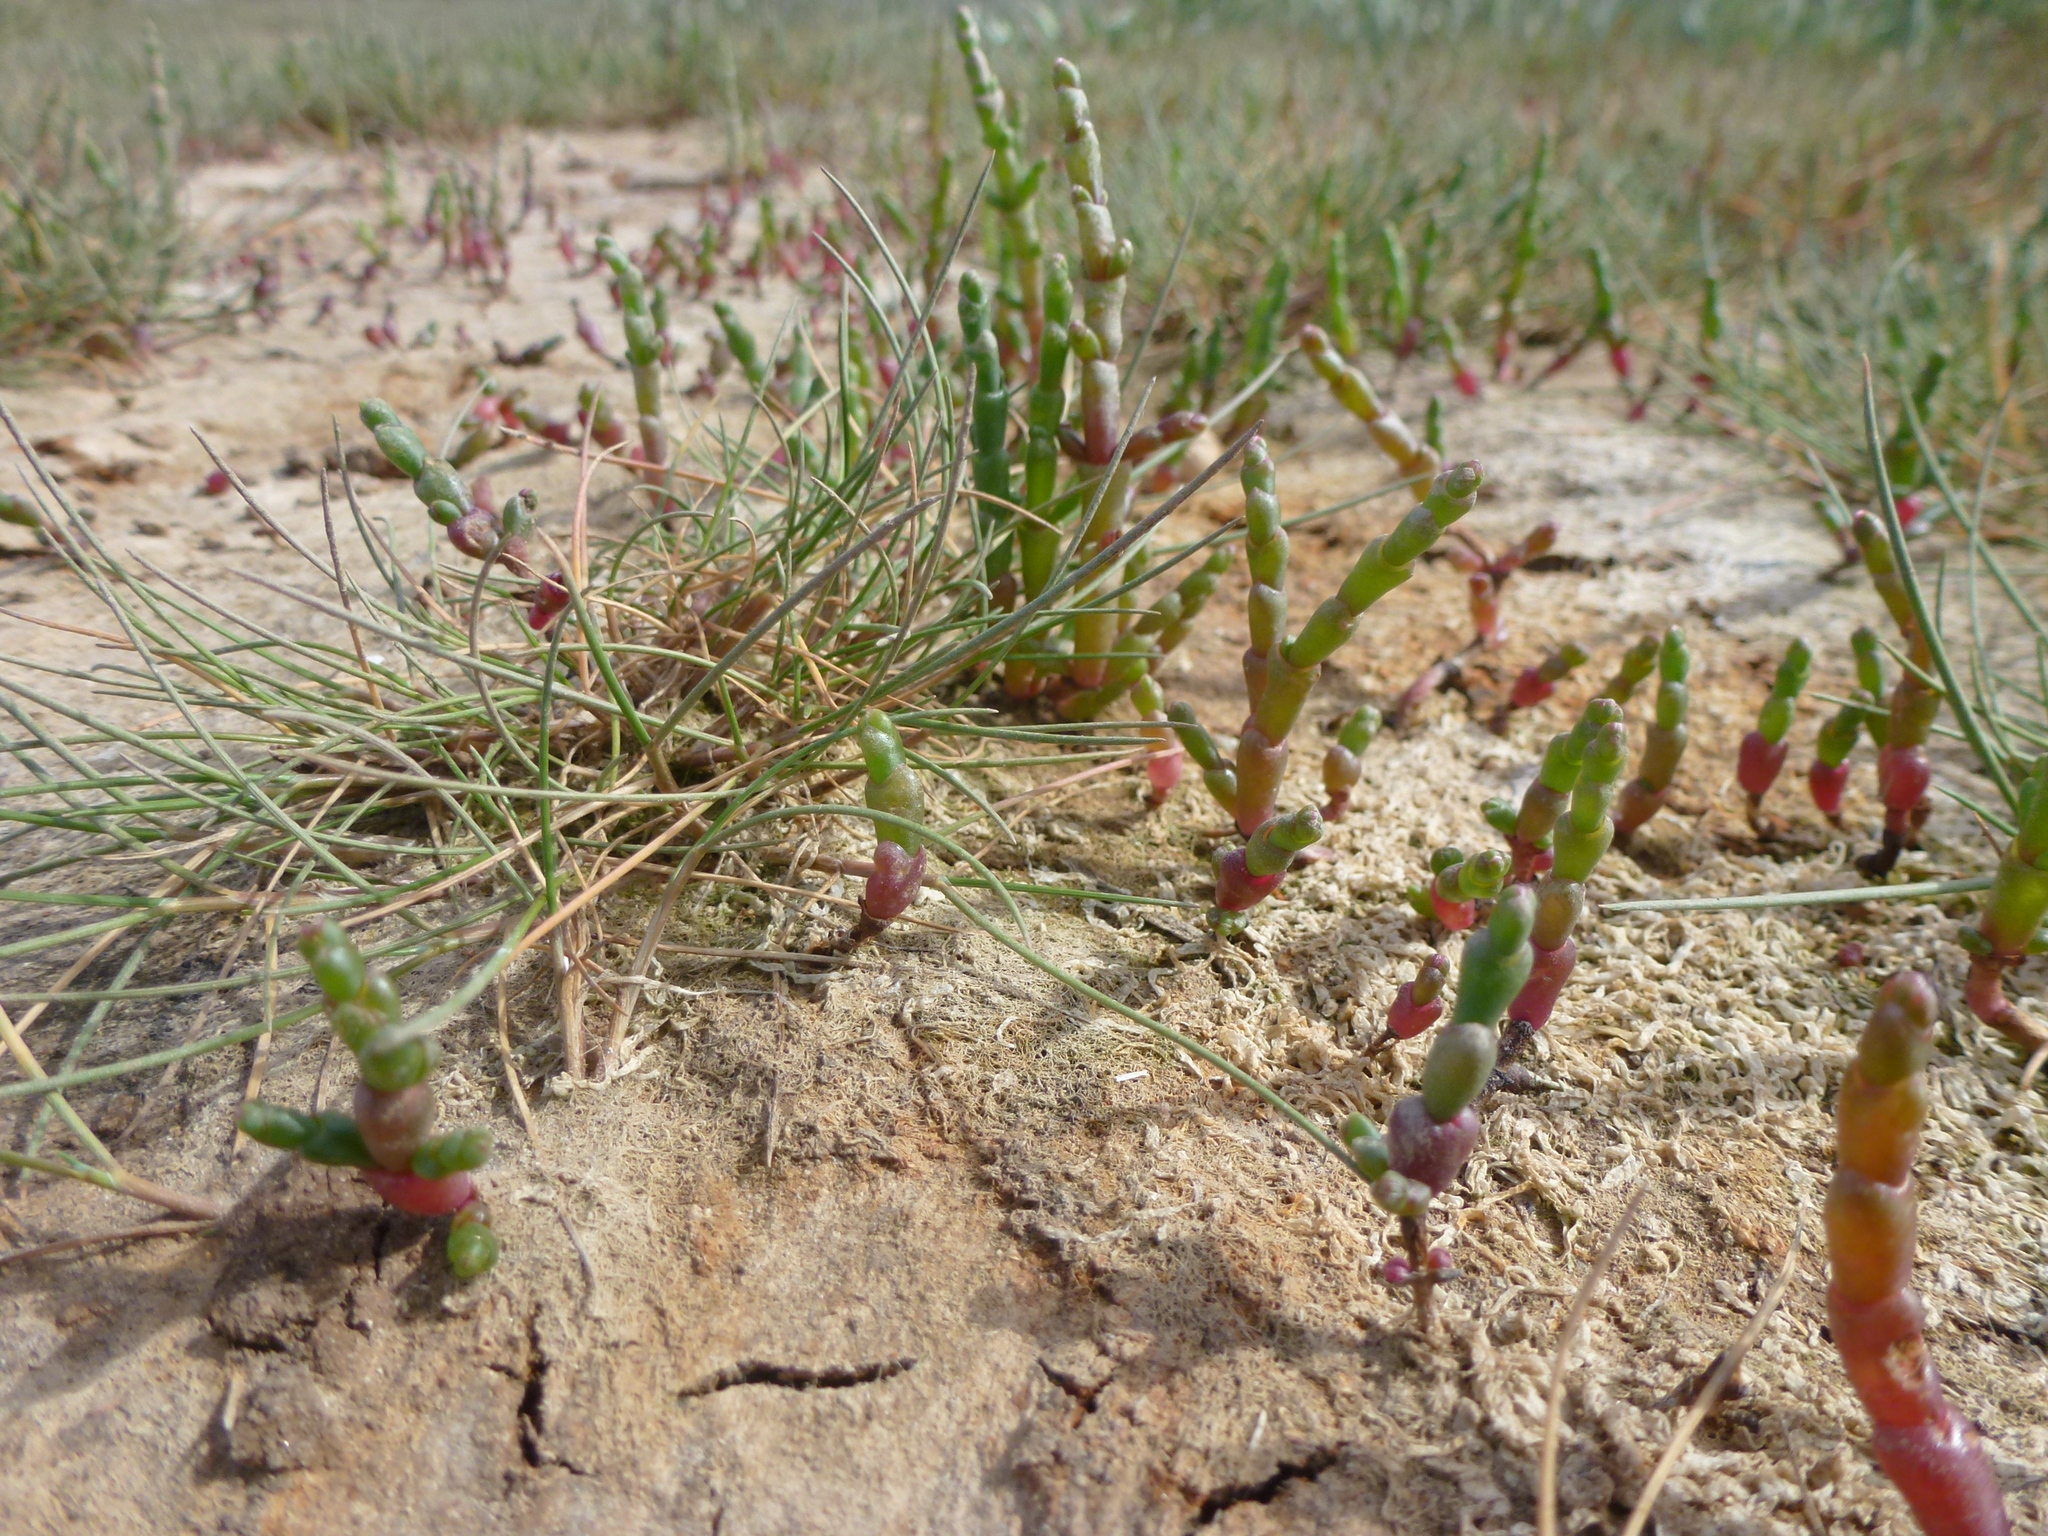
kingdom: Plantae
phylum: Tracheophyta
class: Magnoliopsida
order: Caryophyllales
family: Amaranthaceae
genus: Salicornia
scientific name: Salicornia europaea
